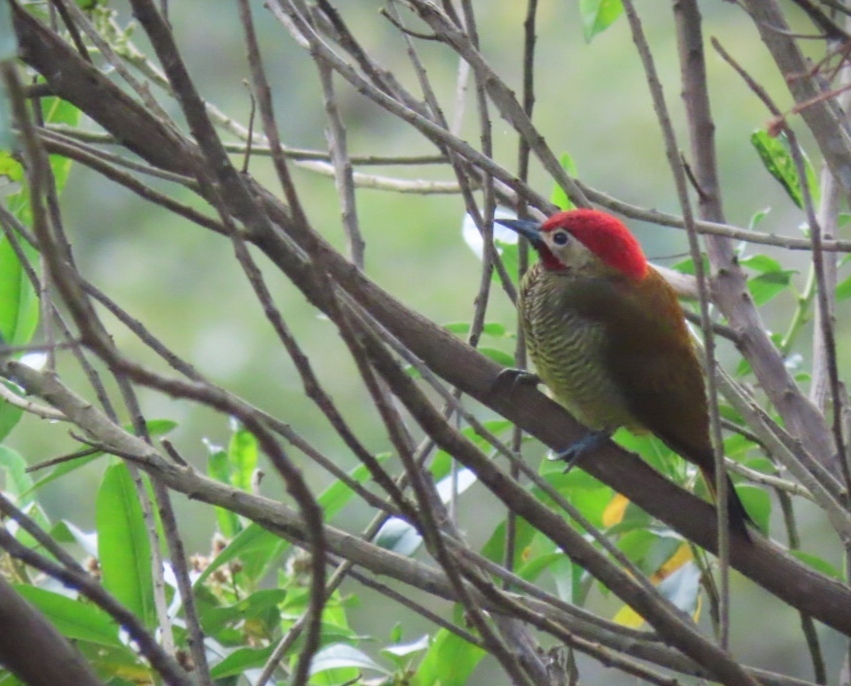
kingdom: Animalia
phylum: Chordata
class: Aves
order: Piciformes
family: Picidae
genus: Colaptes
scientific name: Colaptes rubiginosus
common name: Golden-olive woodpecker
